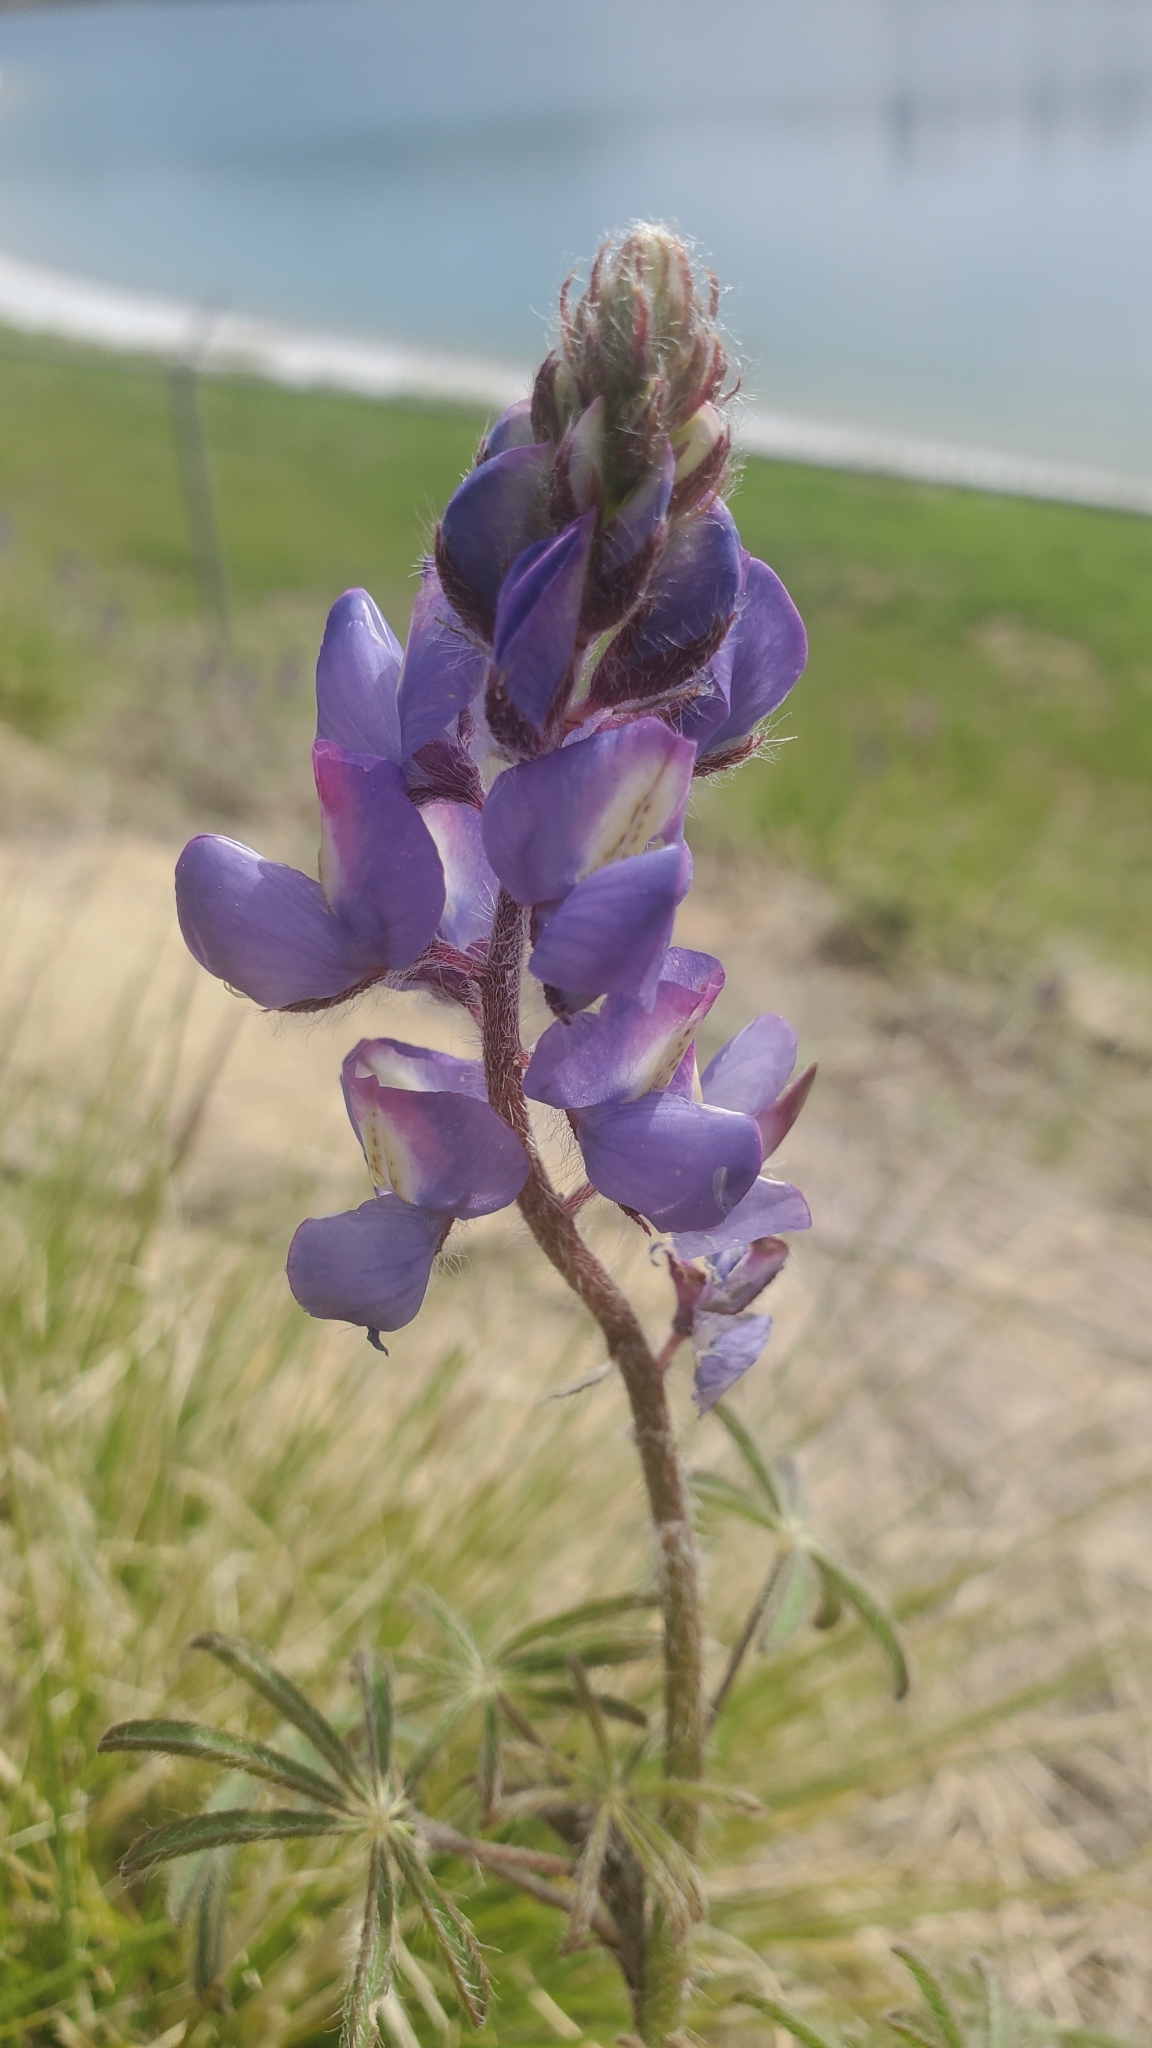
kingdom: Plantae
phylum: Tracheophyta
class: Magnoliopsida
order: Fabales
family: Fabaceae
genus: Lupinus
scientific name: Lupinus sparsiflorus
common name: Coulter's lupine
